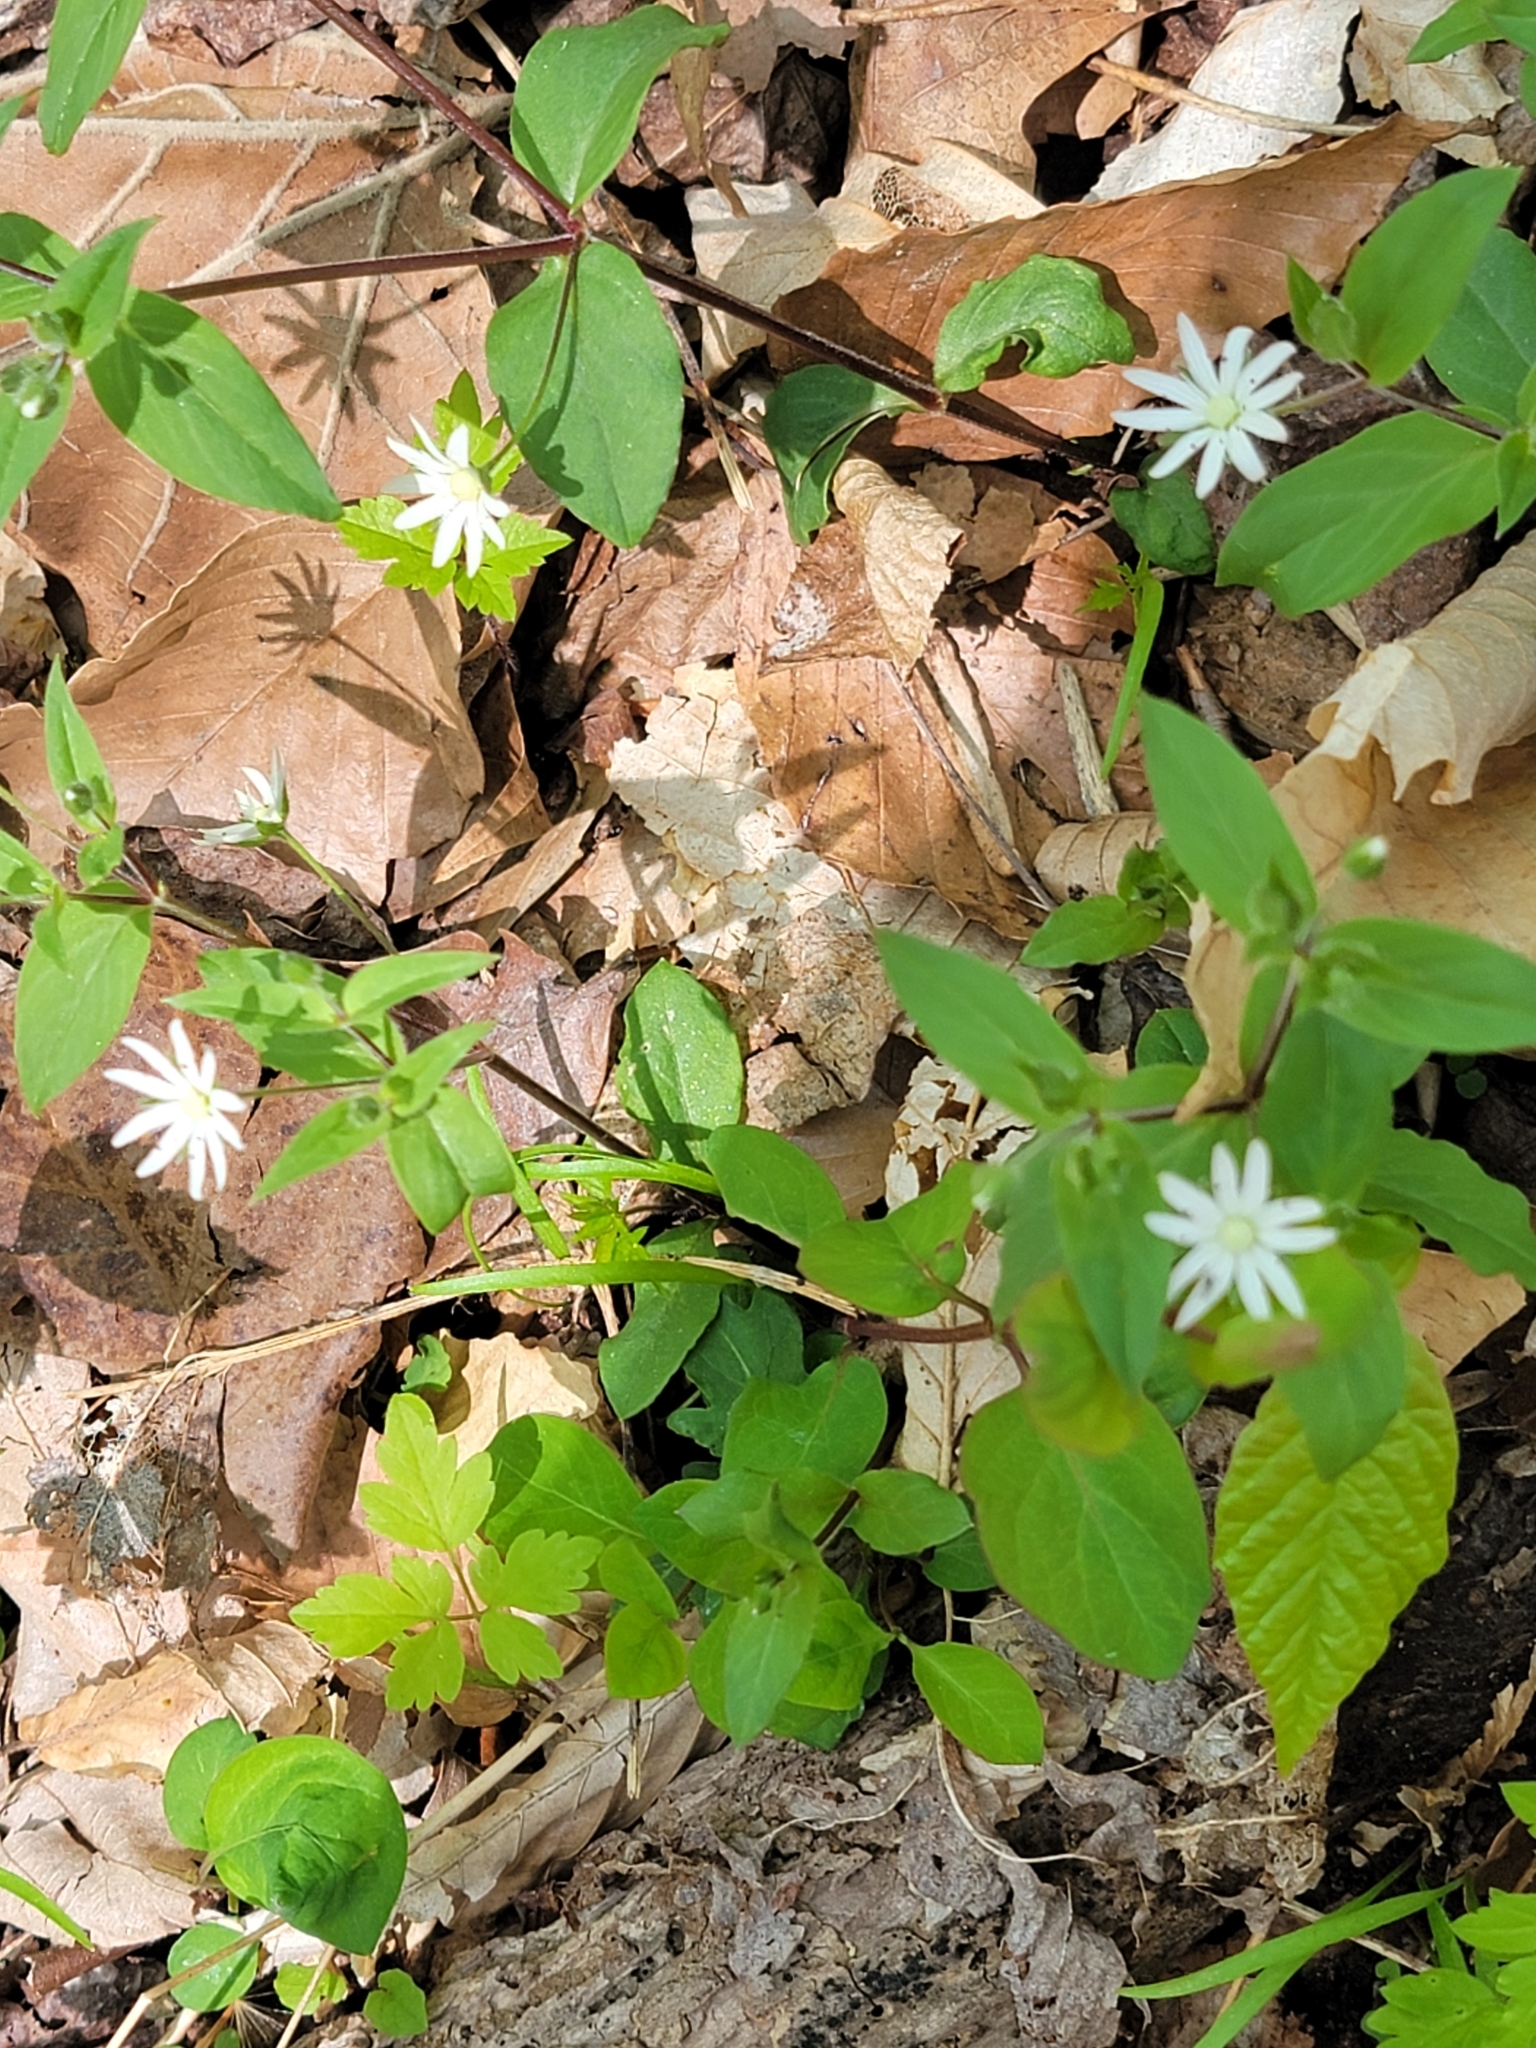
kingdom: Plantae
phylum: Tracheophyta
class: Magnoliopsida
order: Caryophyllales
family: Caryophyllaceae
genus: Stellaria
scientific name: Stellaria pubera
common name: Star chickweed
